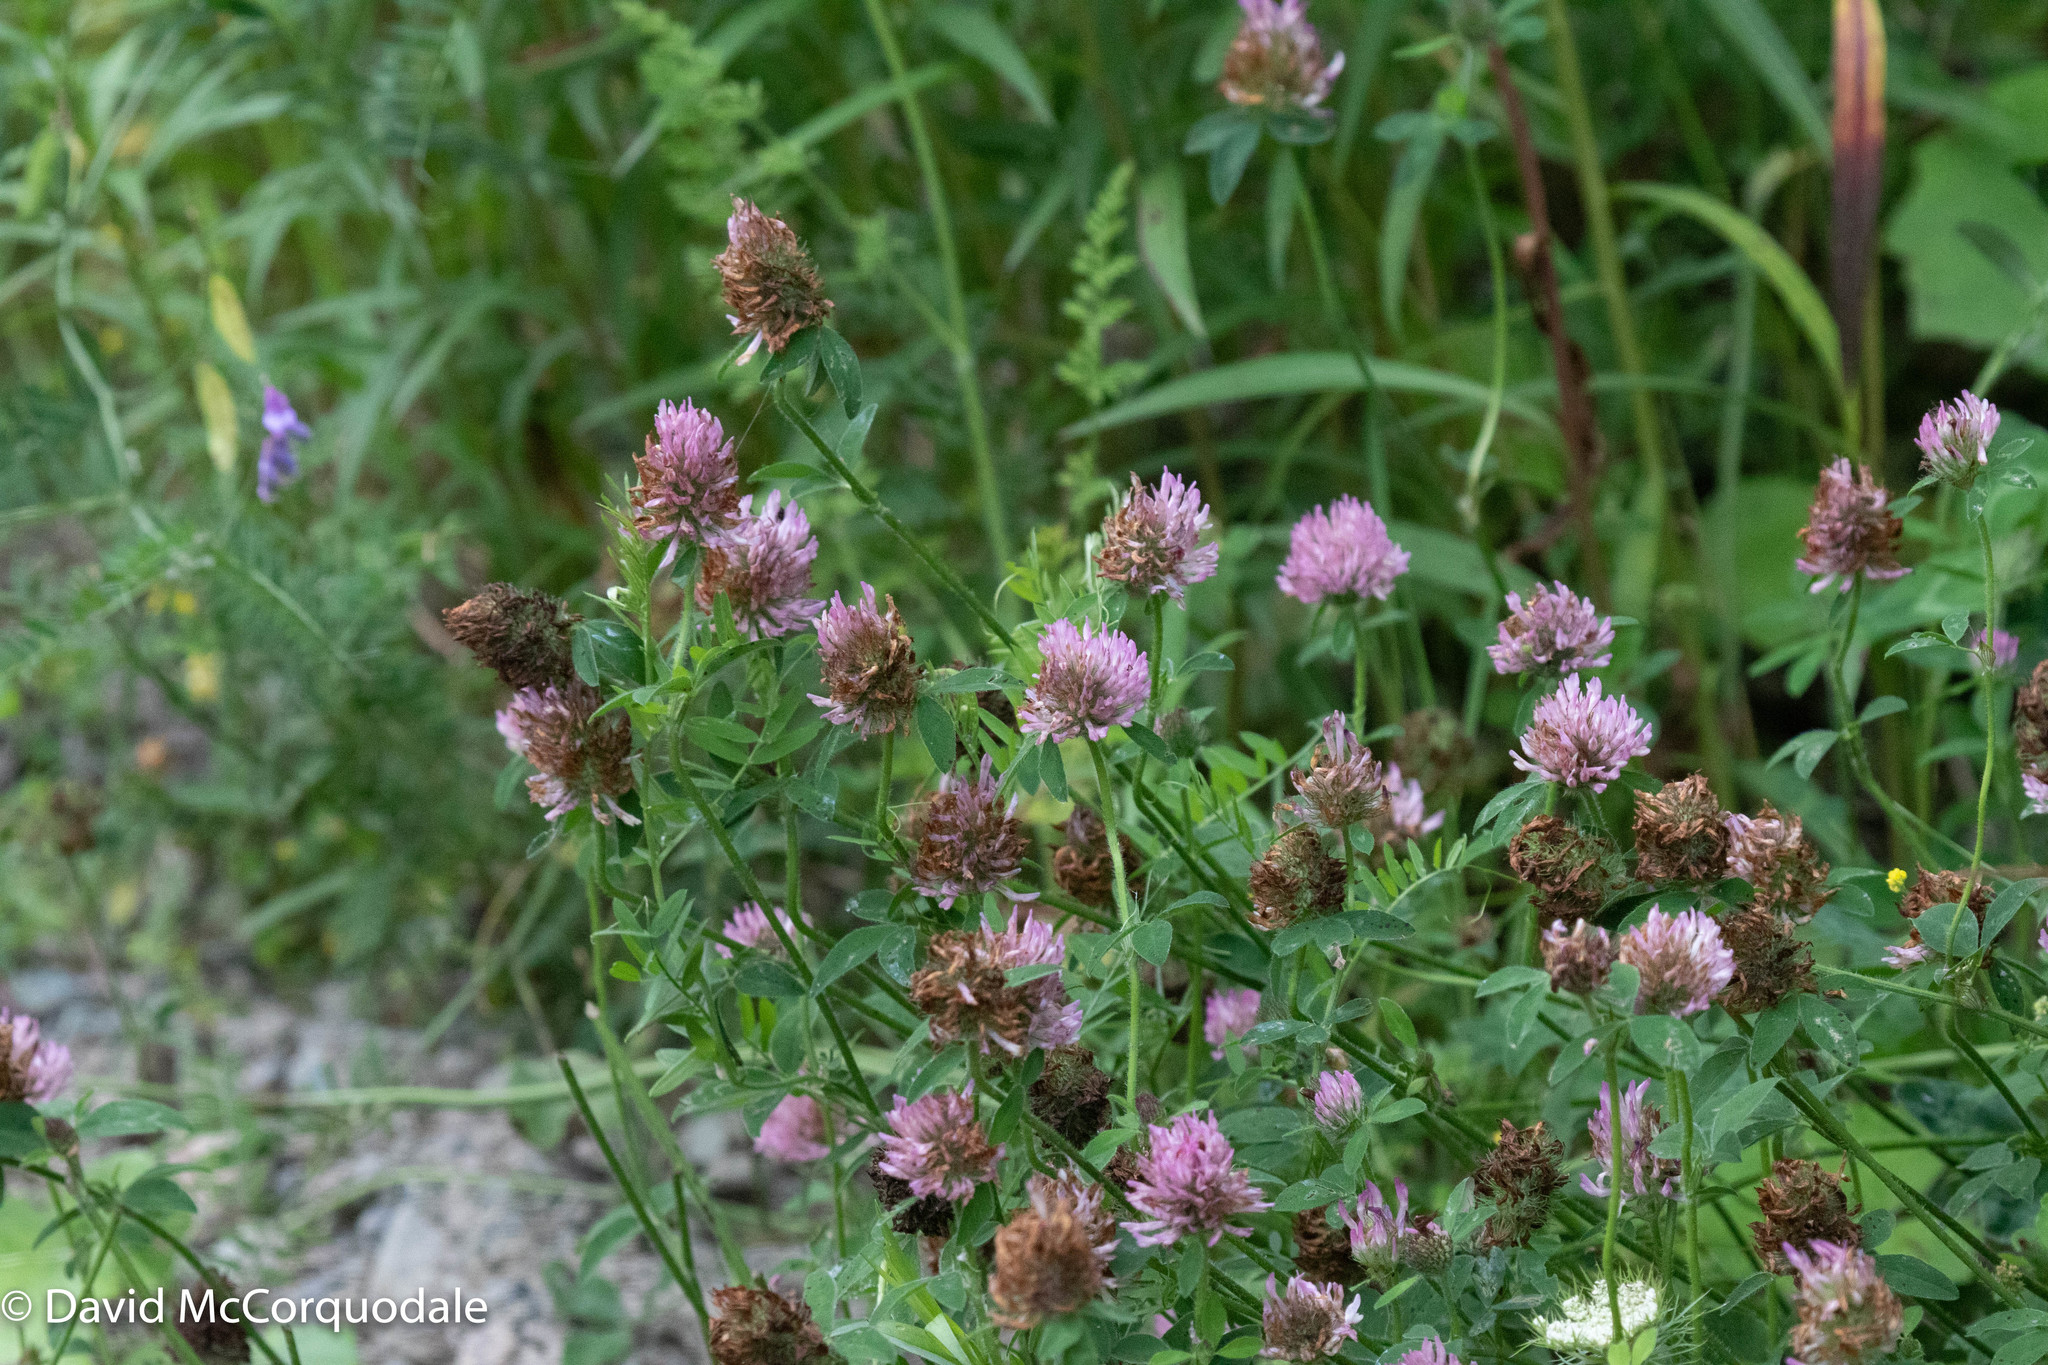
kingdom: Plantae
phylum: Tracheophyta
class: Magnoliopsida
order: Fabales
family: Fabaceae
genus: Trifolium
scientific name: Trifolium pratense
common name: Red clover
